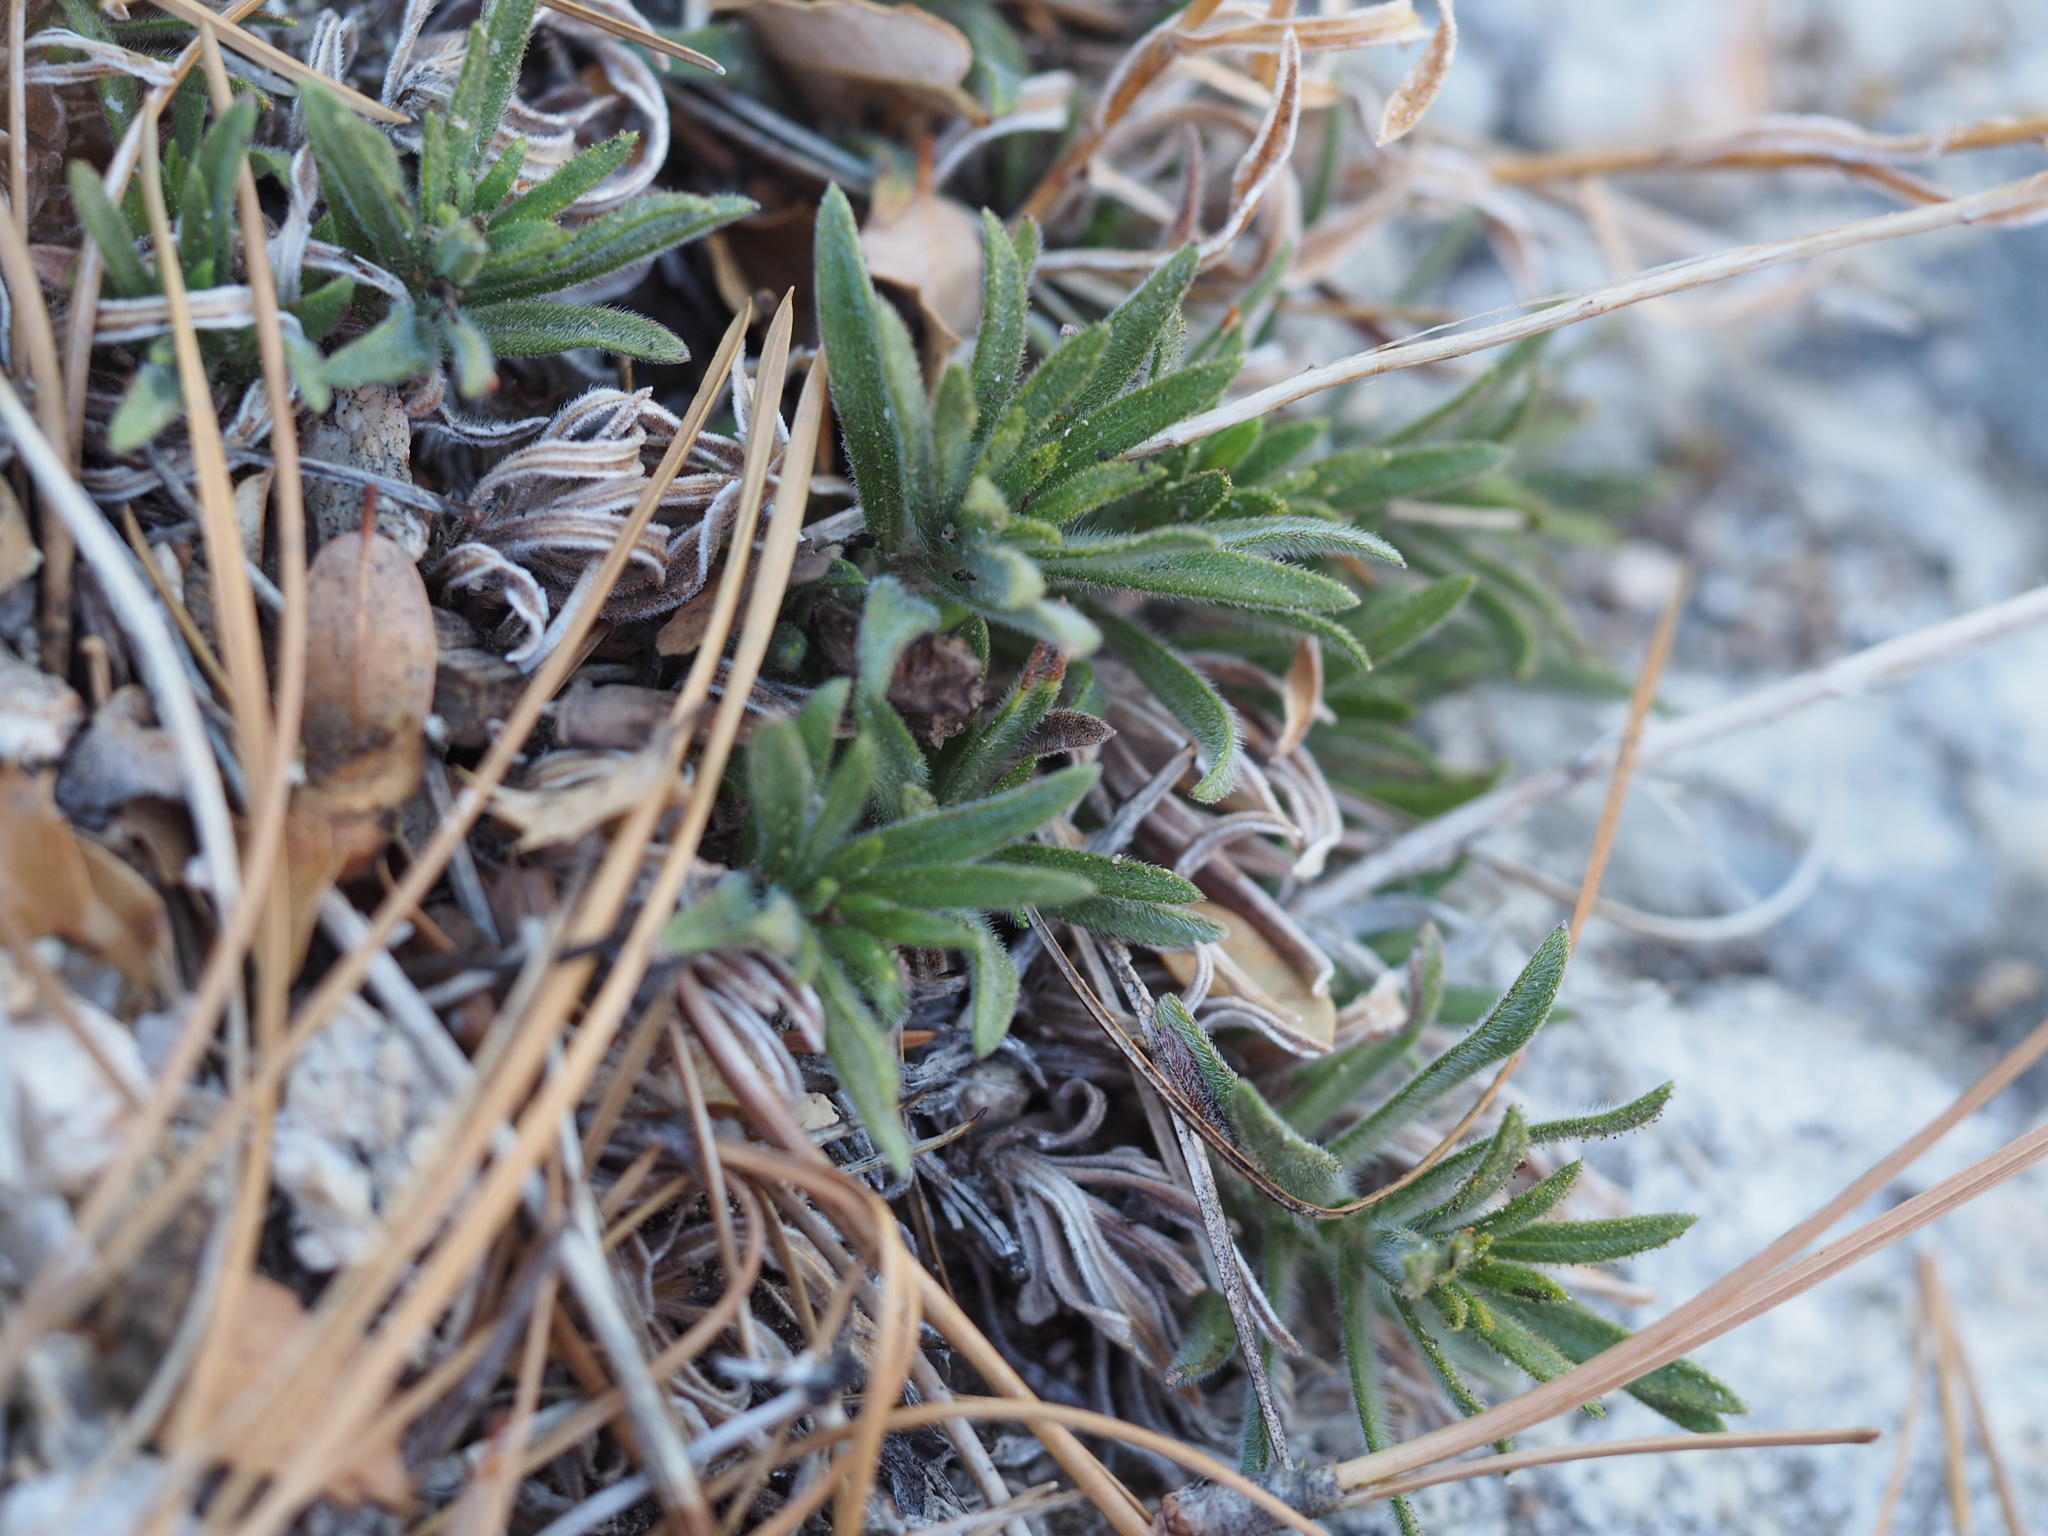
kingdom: Plantae
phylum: Tracheophyta
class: Magnoliopsida
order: Asterales
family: Asteraceae
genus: Carlquistia
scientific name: Carlquistia muirii
